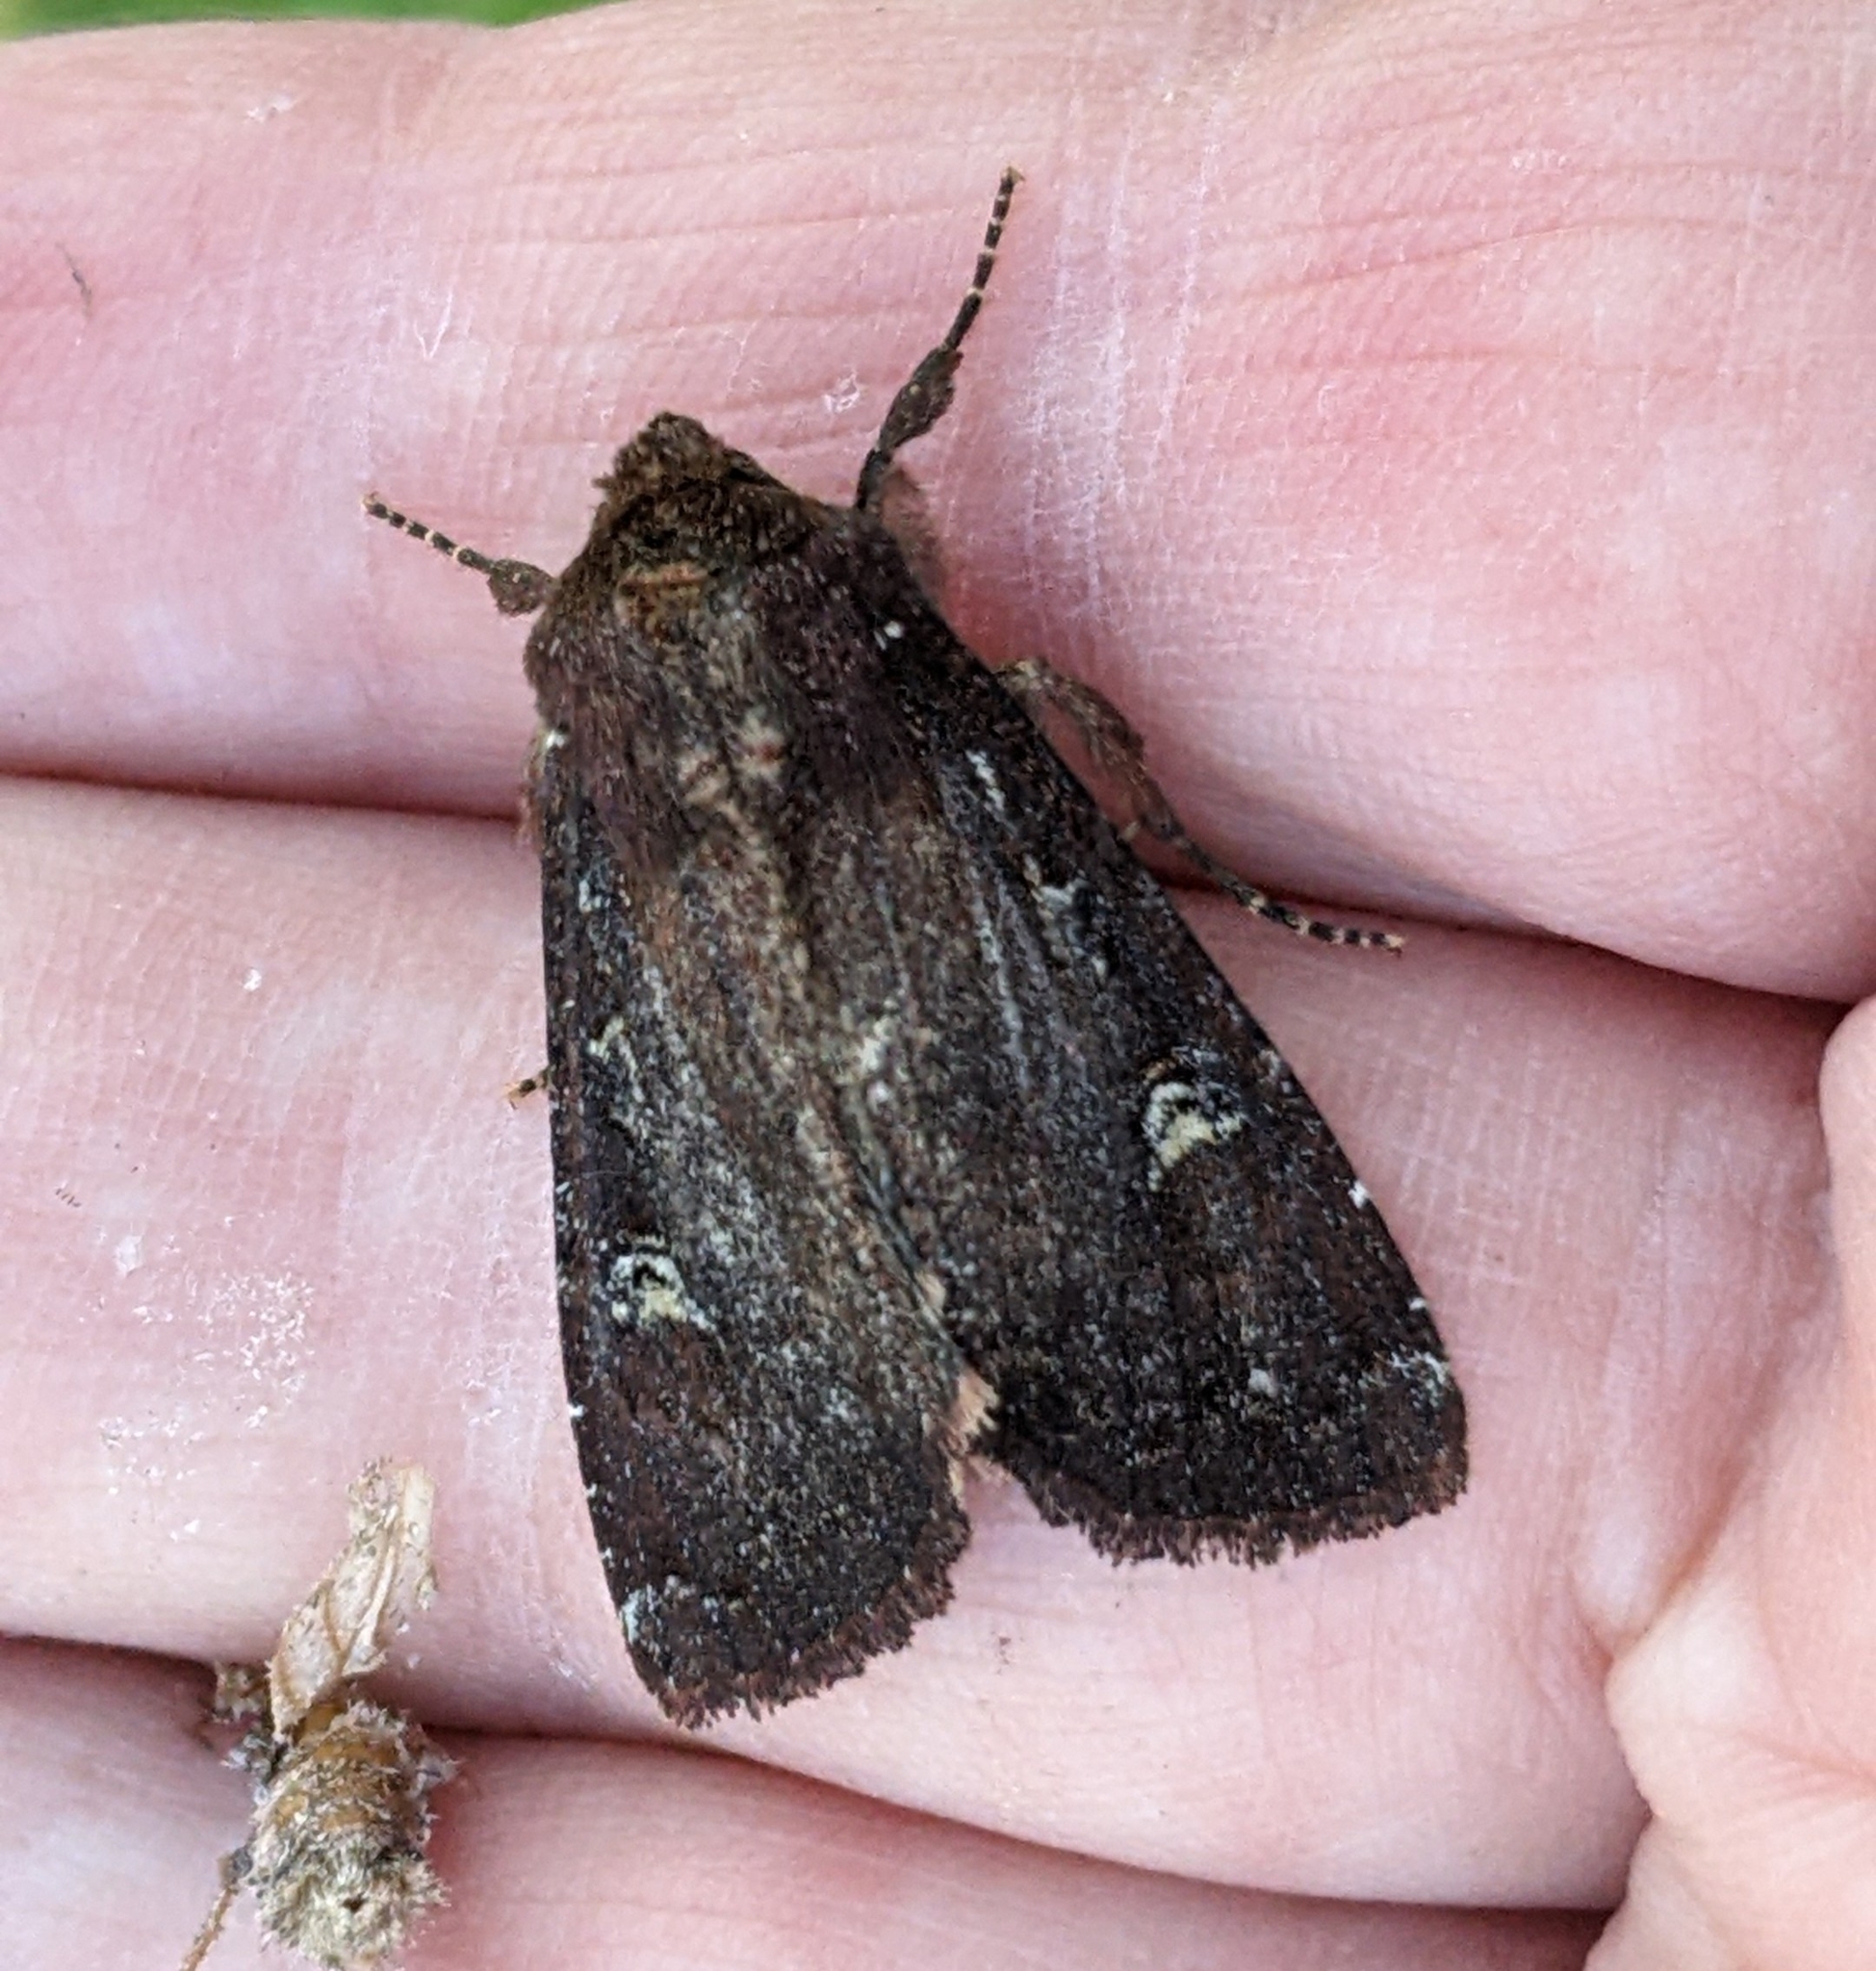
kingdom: Animalia
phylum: Arthropoda
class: Insecta
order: Lepidoptera
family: Noctuidae
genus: Apamea
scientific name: Apamea cogitata
